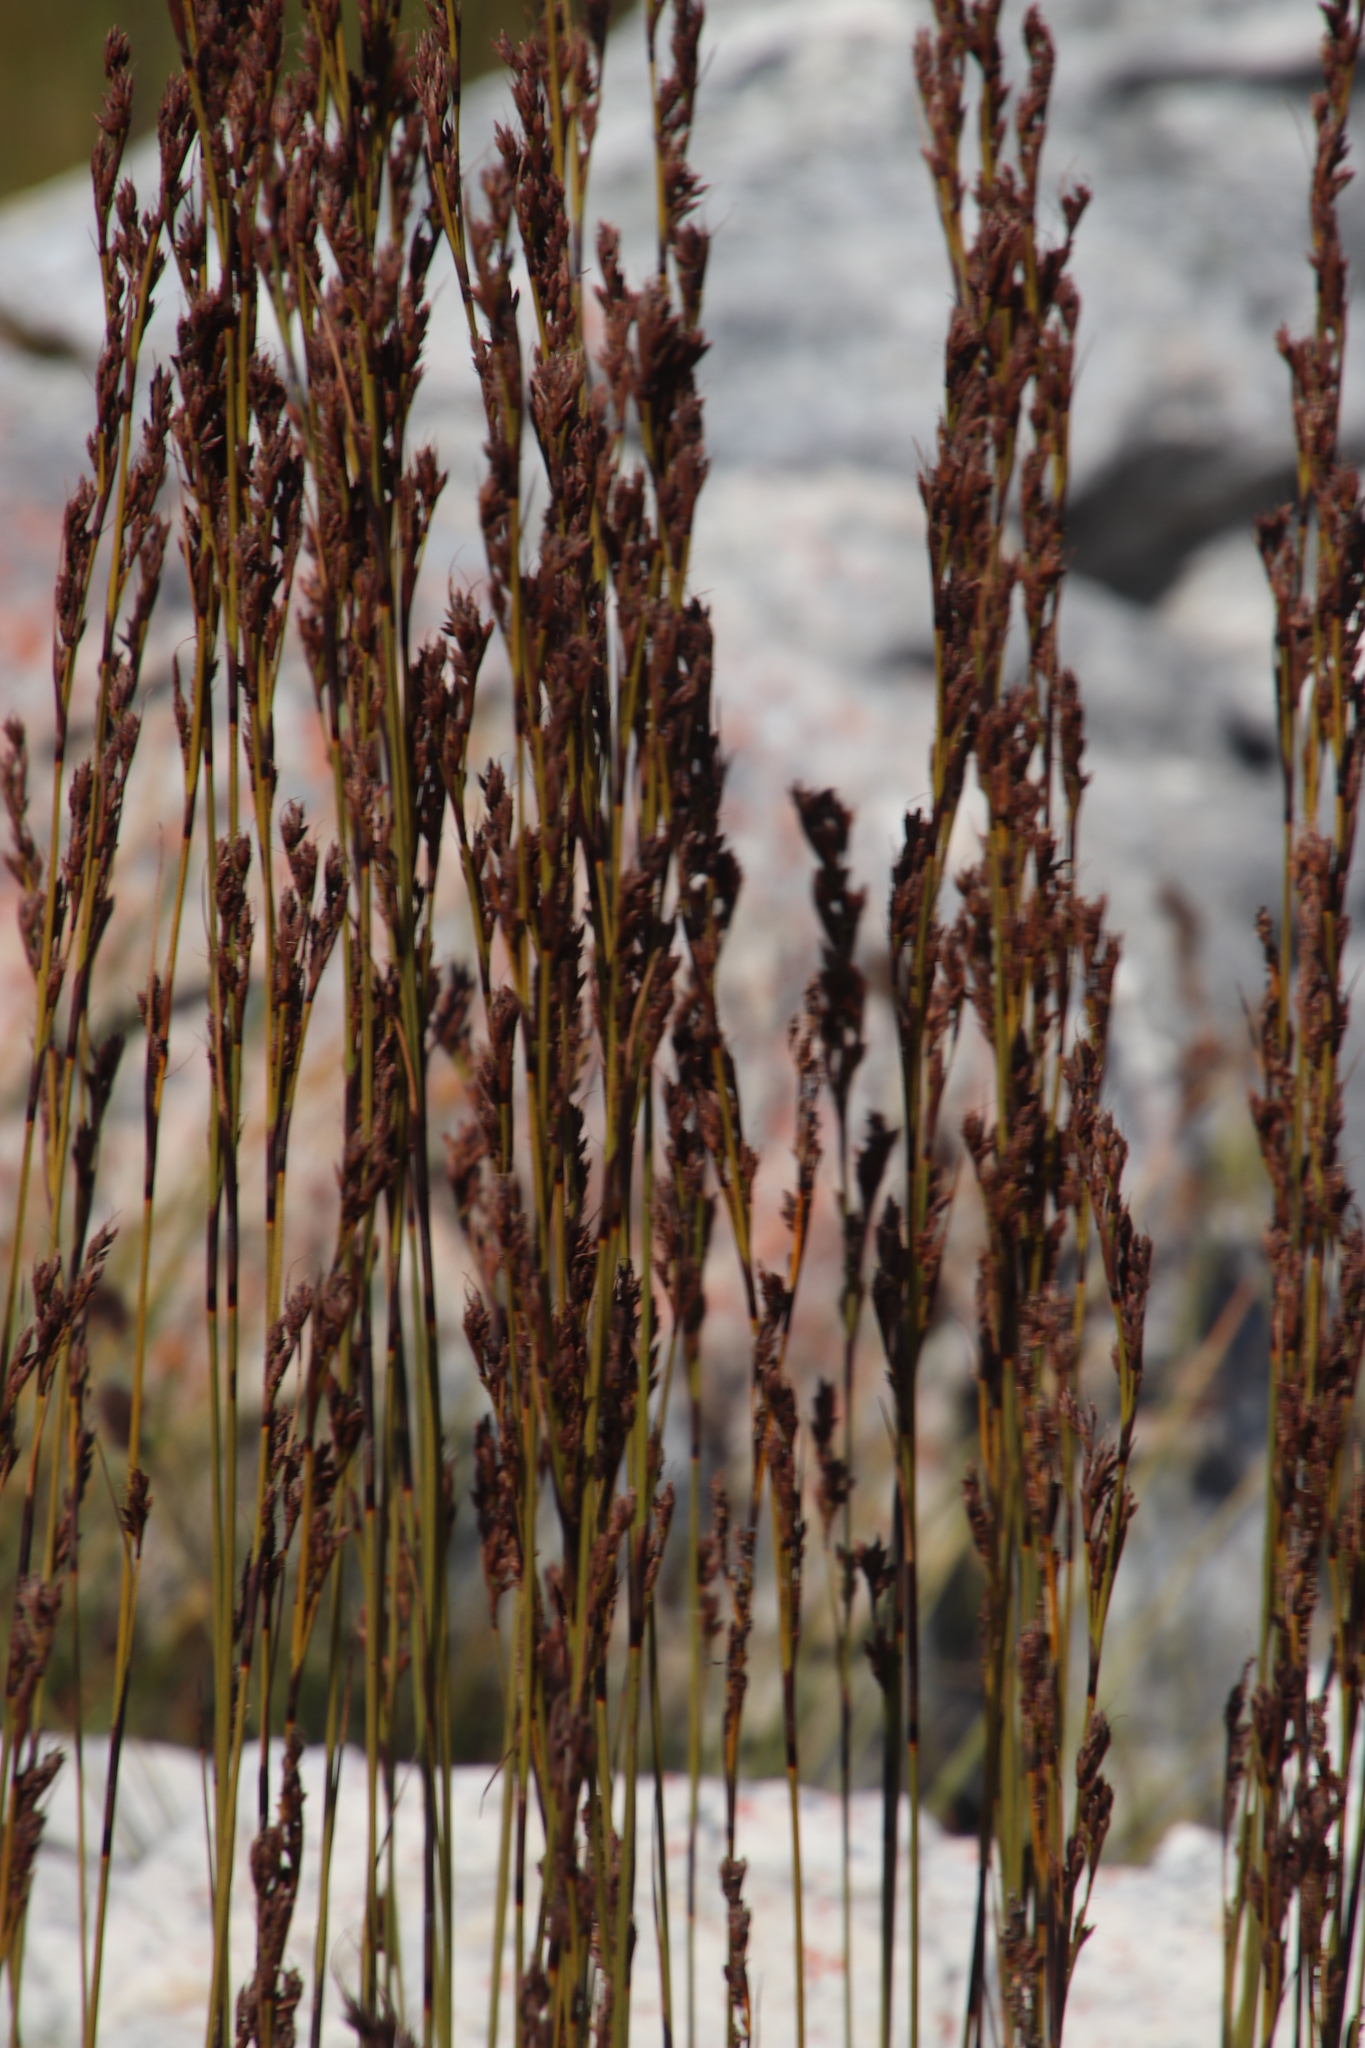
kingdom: Plantae
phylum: Tracheophyta
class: Liliopsida
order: Poales
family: Cyperaceae
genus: Tetraria
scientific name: Tetraria flexuosa
